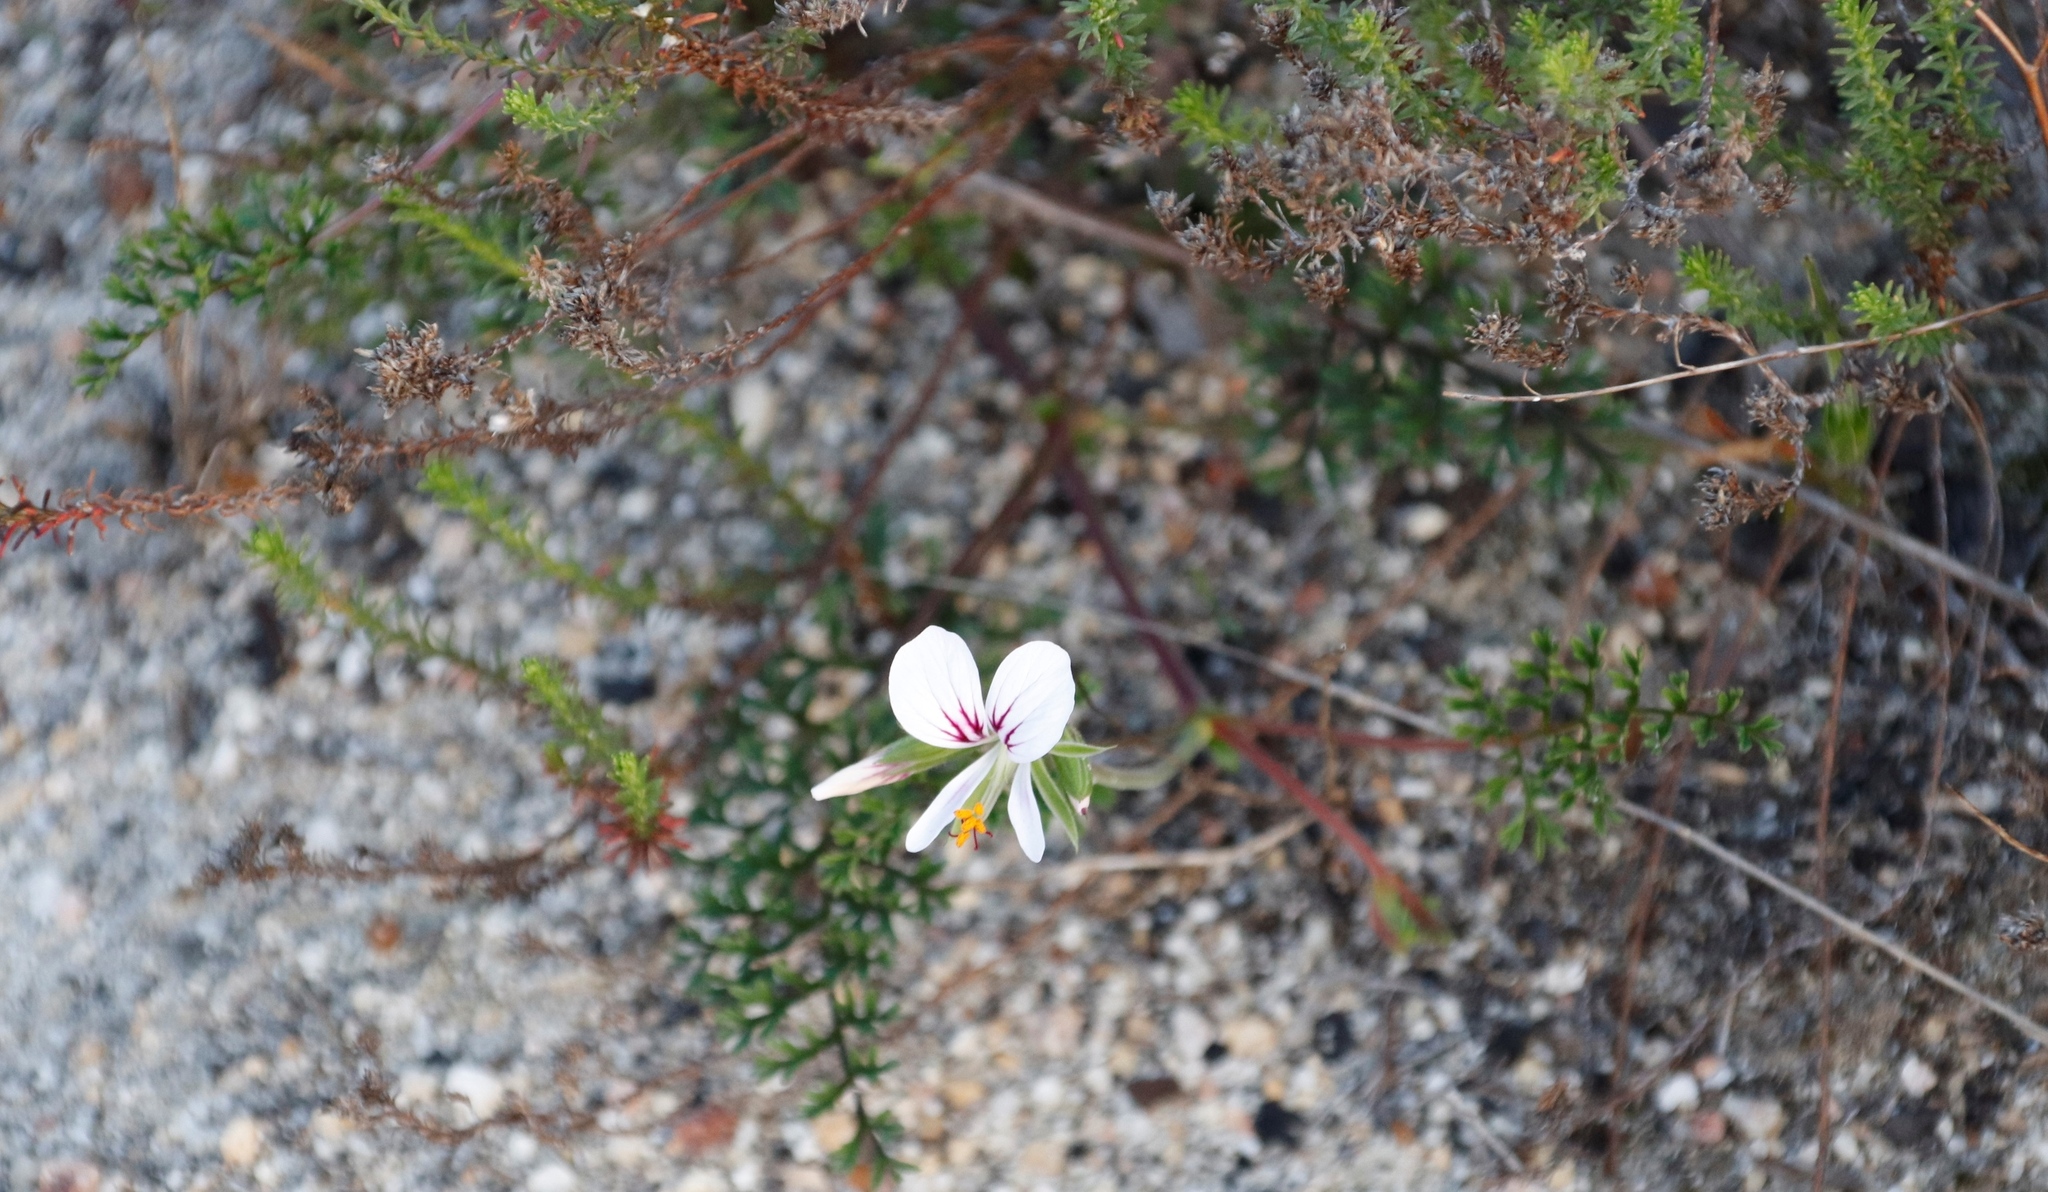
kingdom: Plantae
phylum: Tracheophyta
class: Magnoliopsida
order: Geraniales
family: Geraniaceae
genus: Pelargonium
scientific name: Pelargonium myrrhifolium
